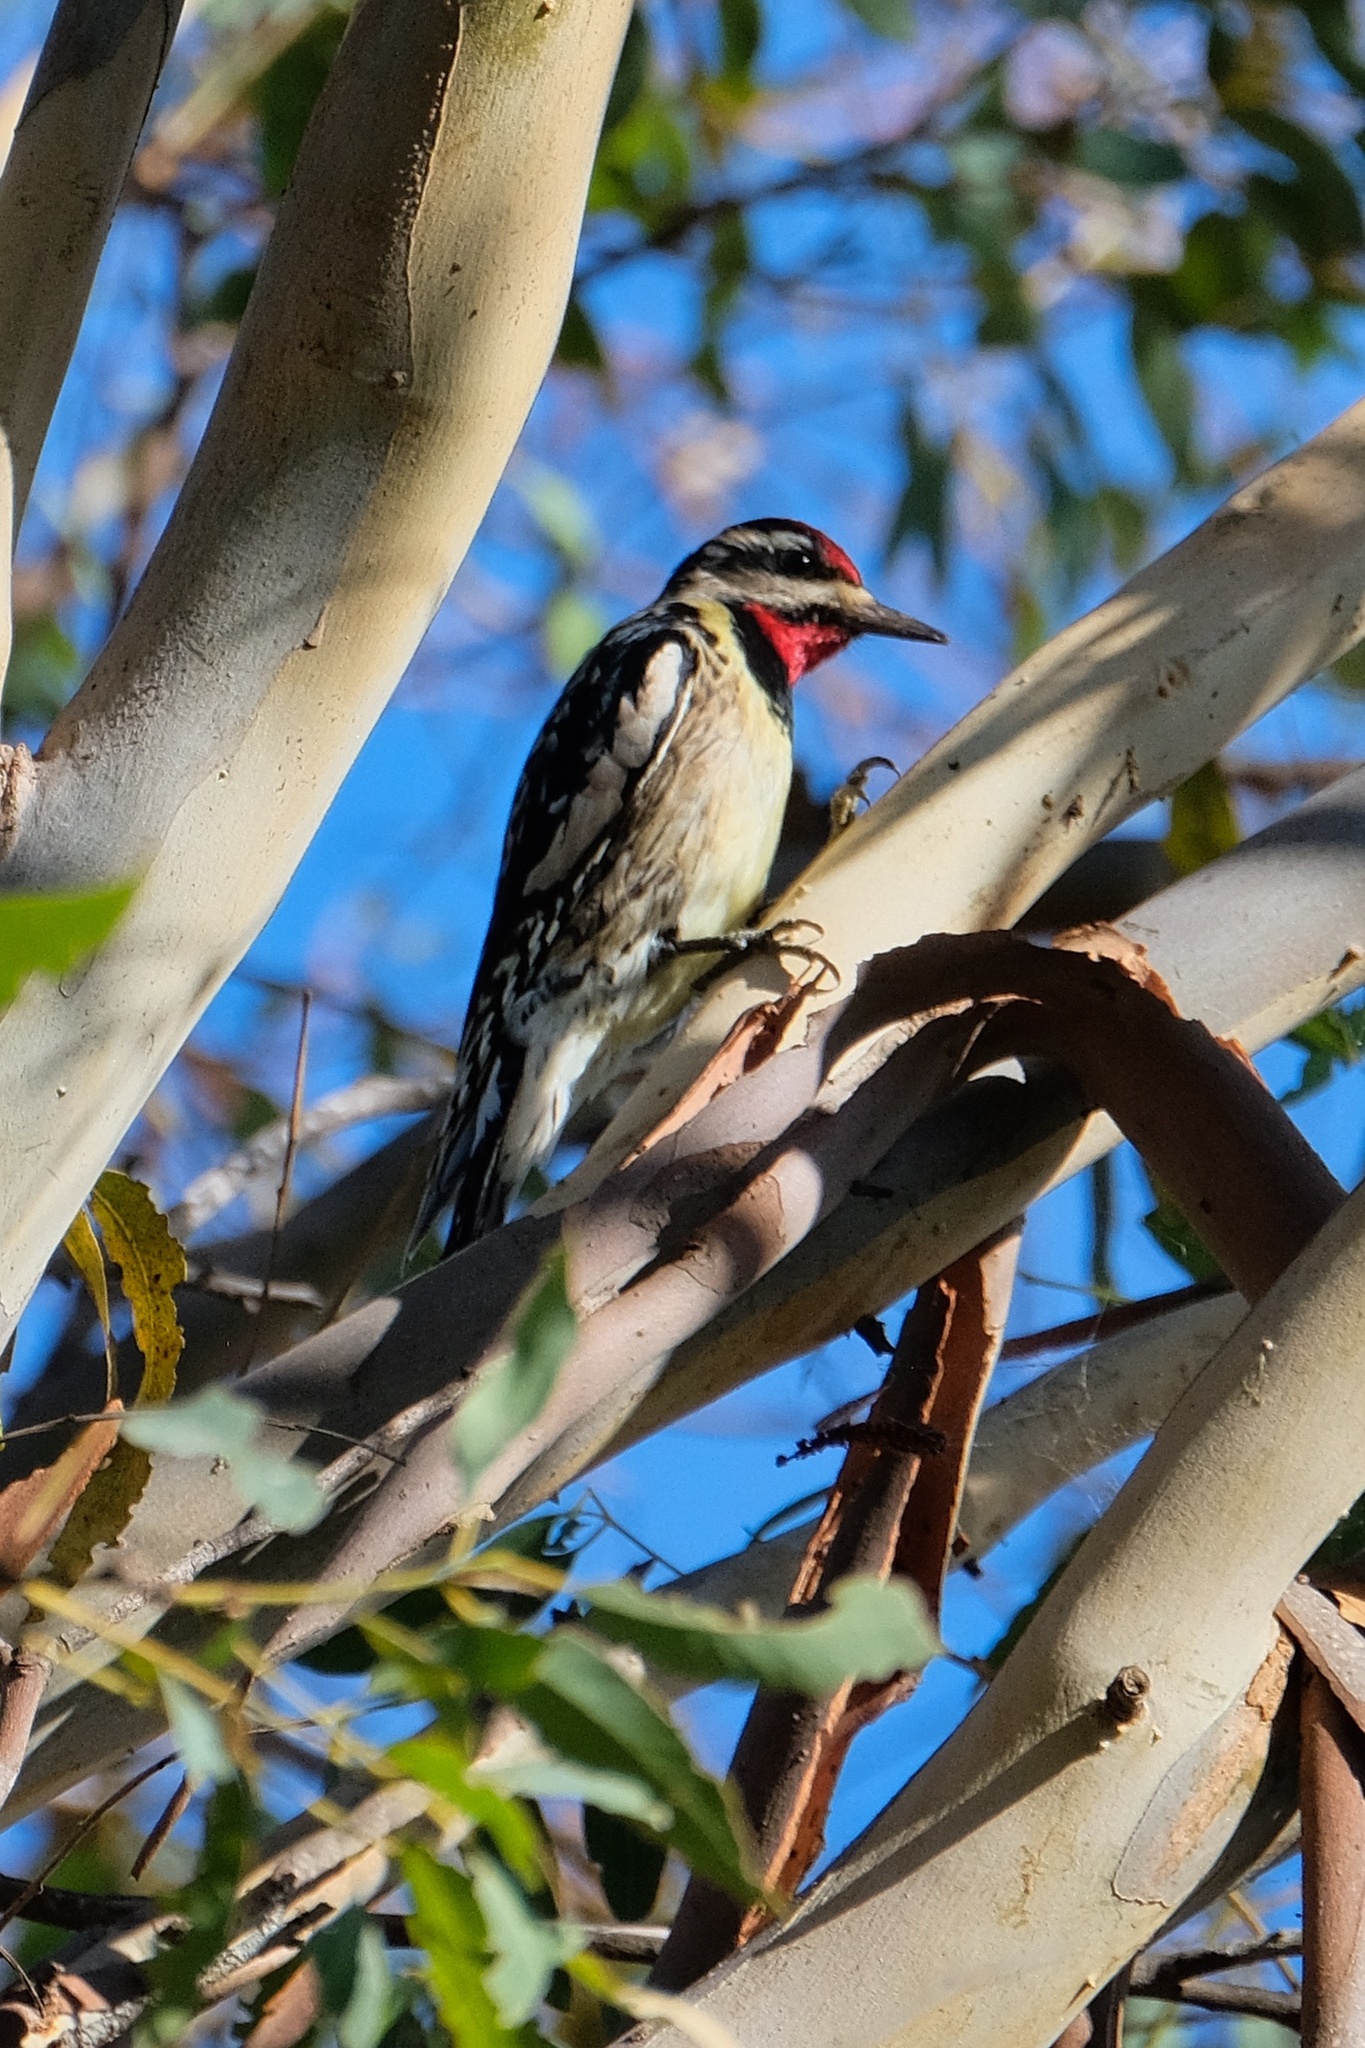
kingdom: Animalia
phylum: Chordata
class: Aves
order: Piciformes
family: Picidae
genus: Sphyrapicus
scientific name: Sphyrapicus varius
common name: Yellow-bellied sapsucker
